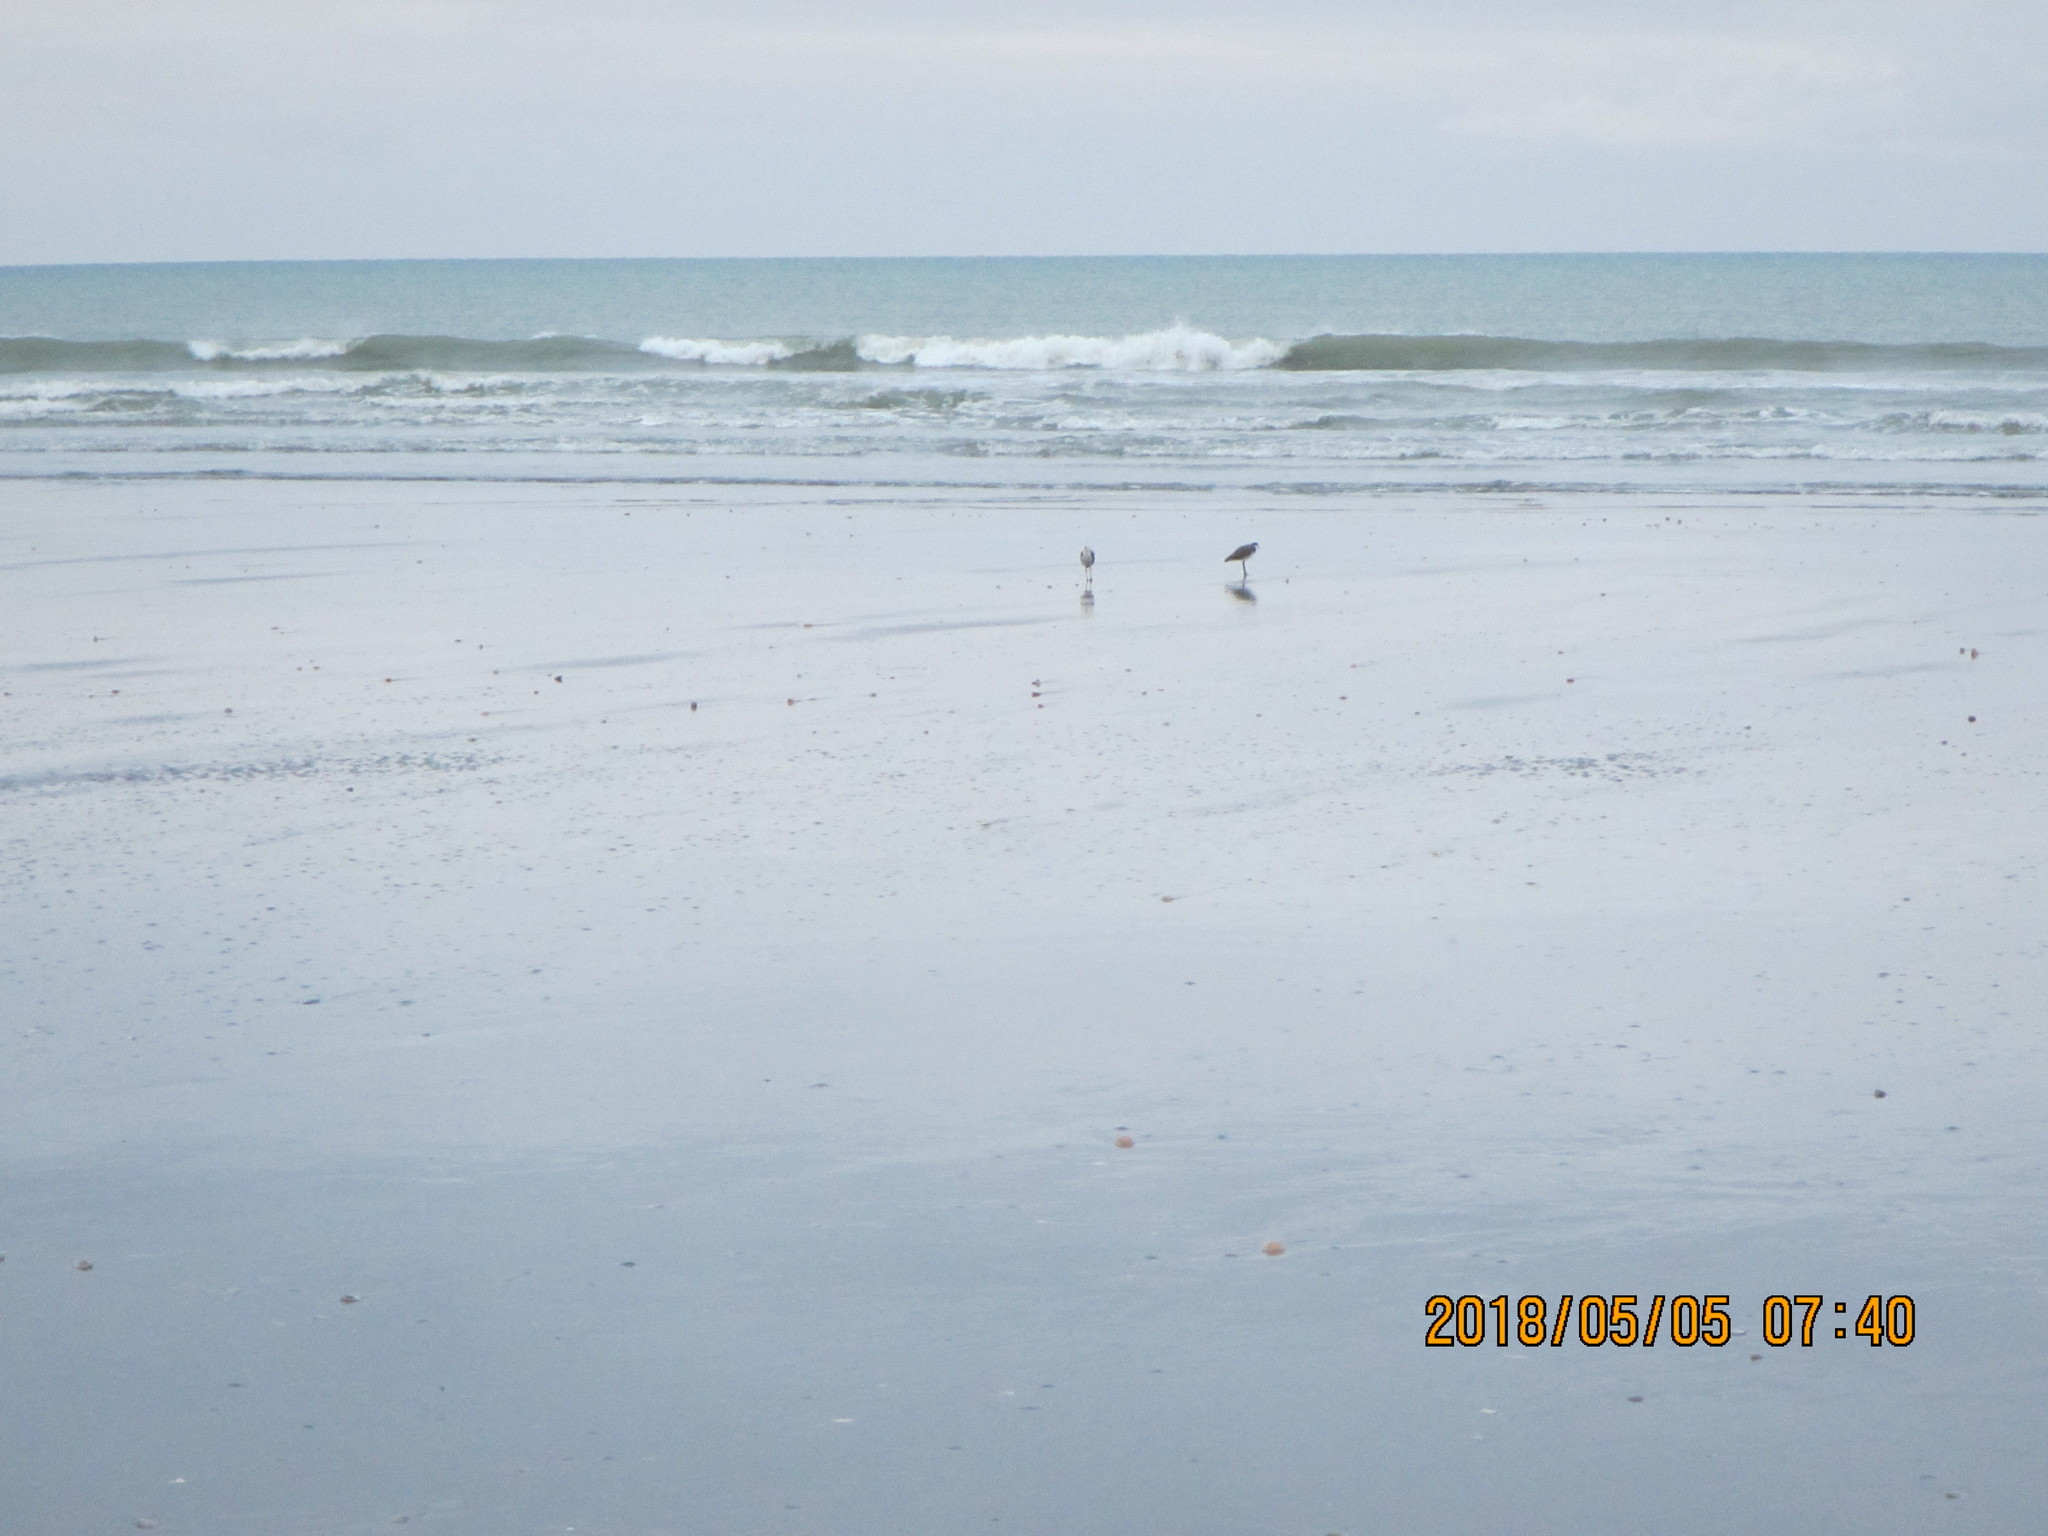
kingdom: Animalia
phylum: Chordata
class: Aves
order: Charadriiformes
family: Charadriidae
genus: Vanellus
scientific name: Vanellus miles
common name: Masked lapwing
